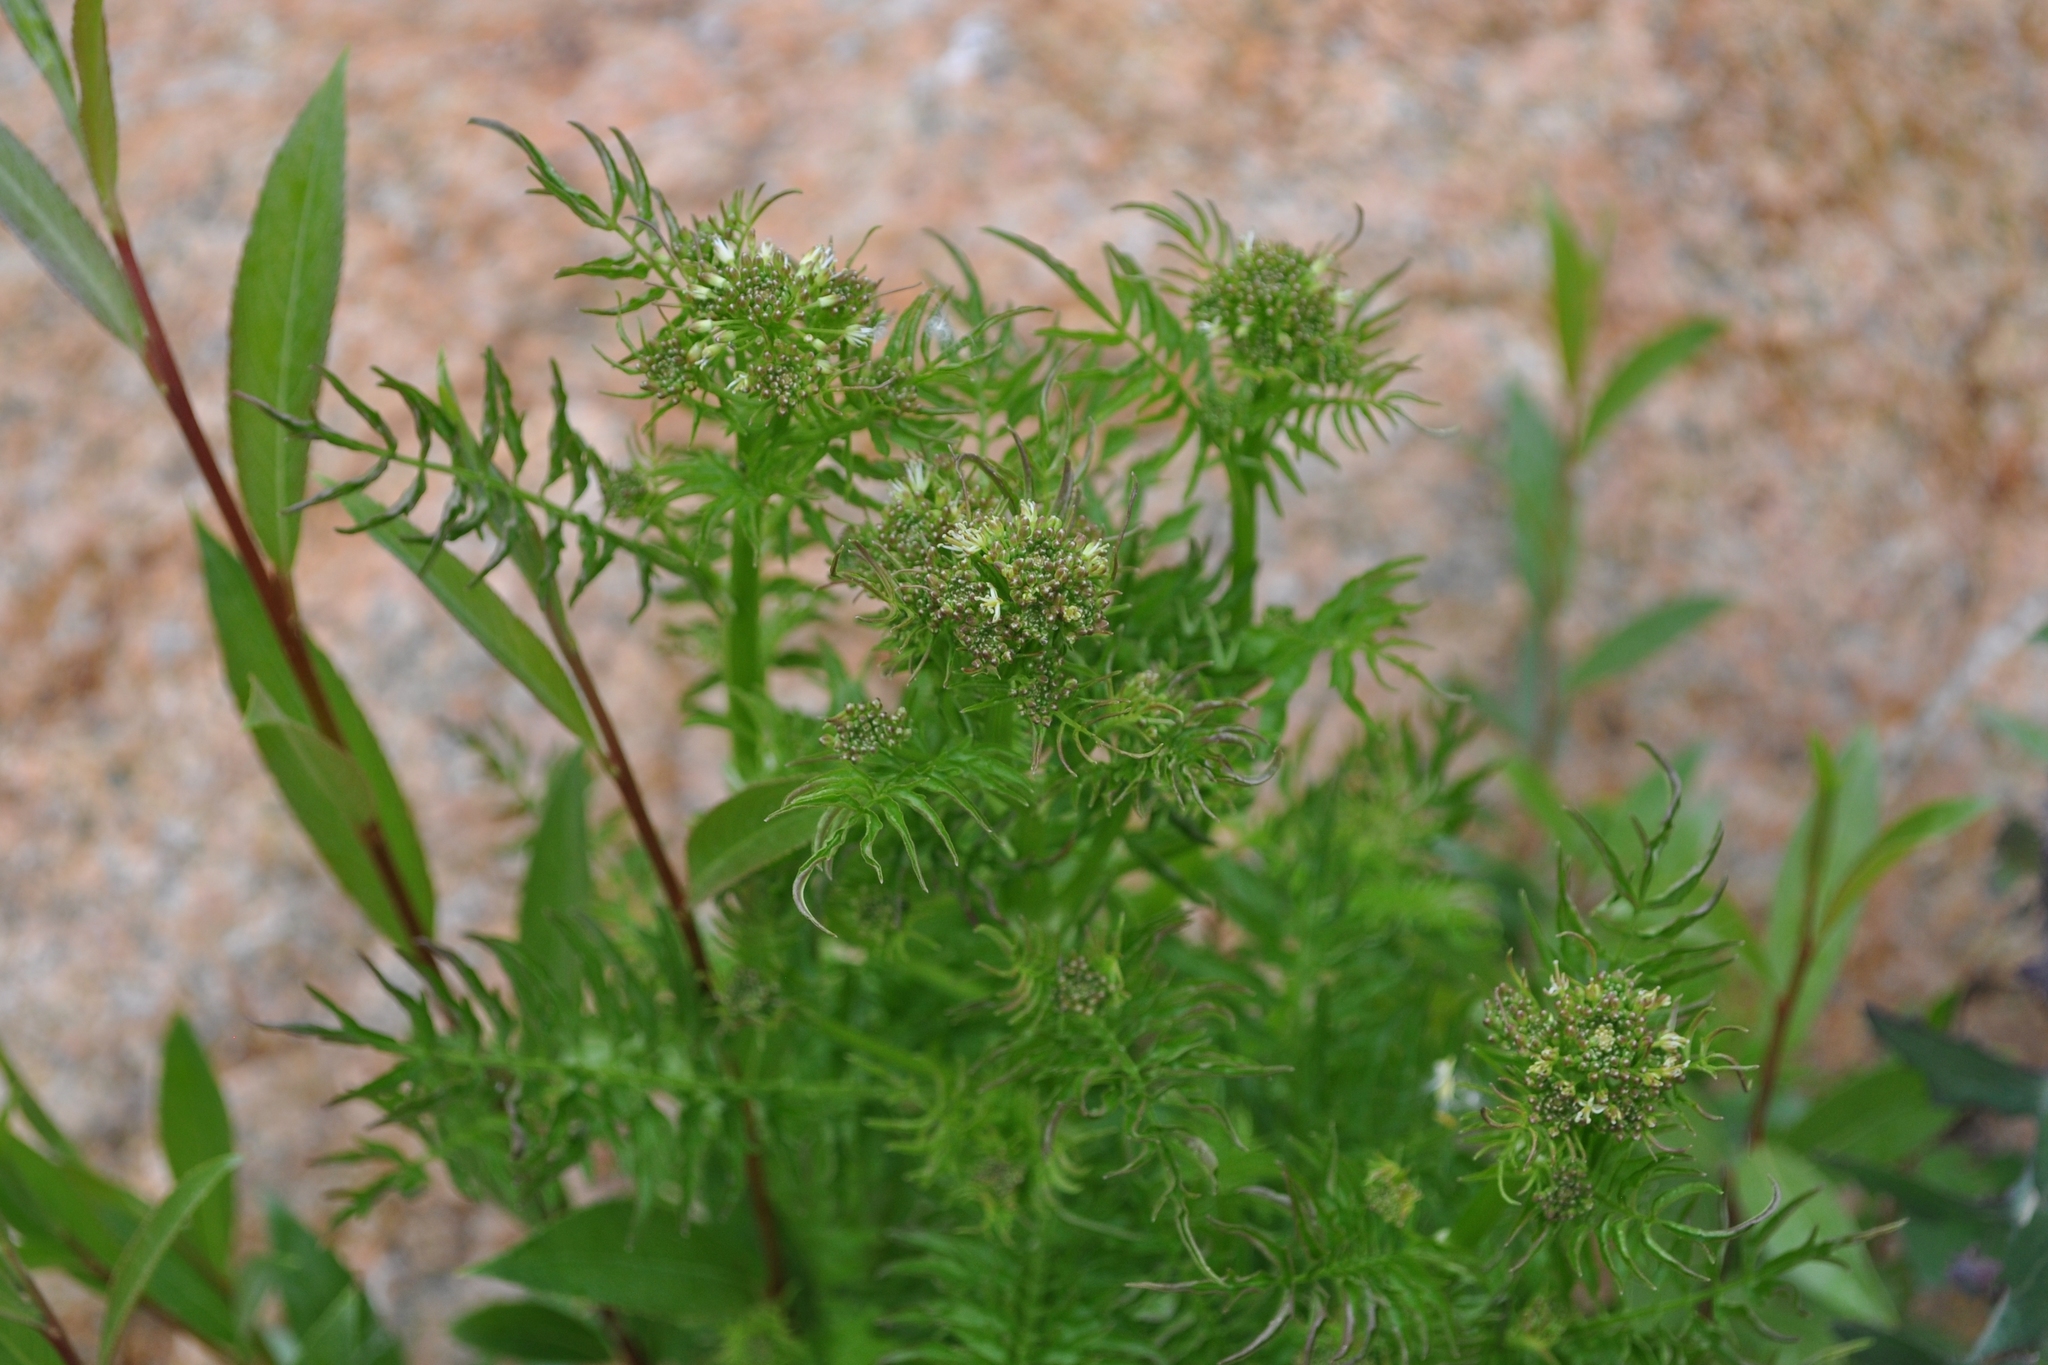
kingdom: Plantae
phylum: Tracheophyta
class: Magnoliopsida
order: Brassicales
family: Brassicaceae
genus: Cardamine
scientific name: Cardamine impatiens
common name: Narrow-leaved bitter-cress
